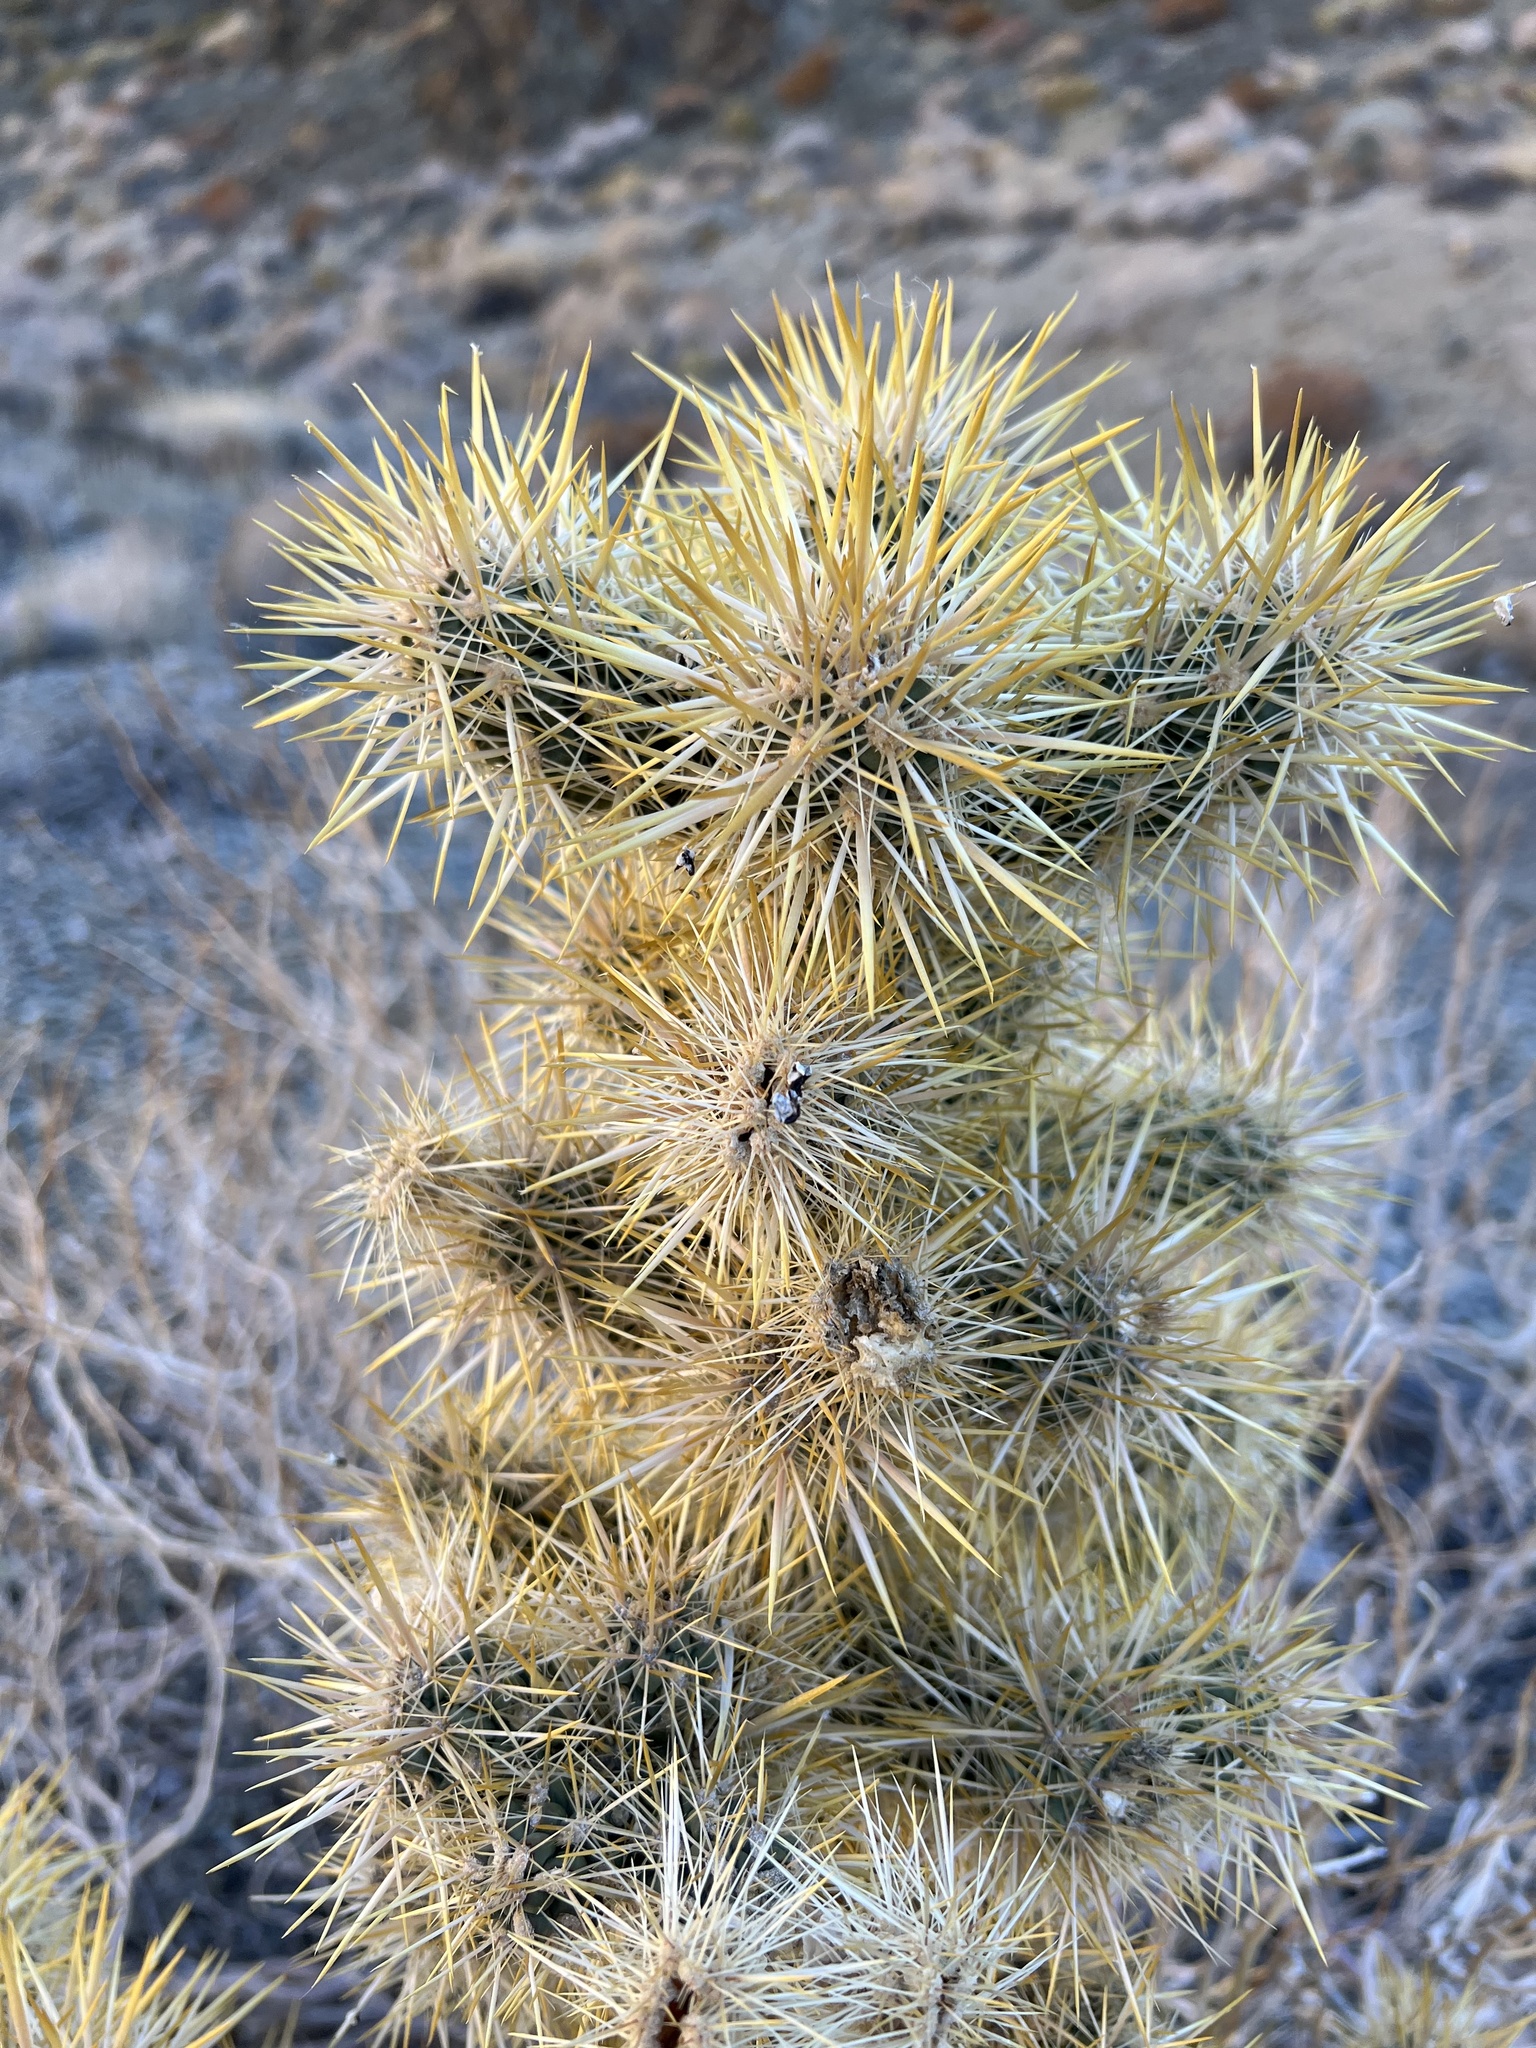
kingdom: Plantae
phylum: Tracheophyta
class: Magnoliopsida
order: Caryophyllales
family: Cactaceae
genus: Cylindropuntia
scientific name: Cylindropuntia echinocarpa
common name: Ground cholla
